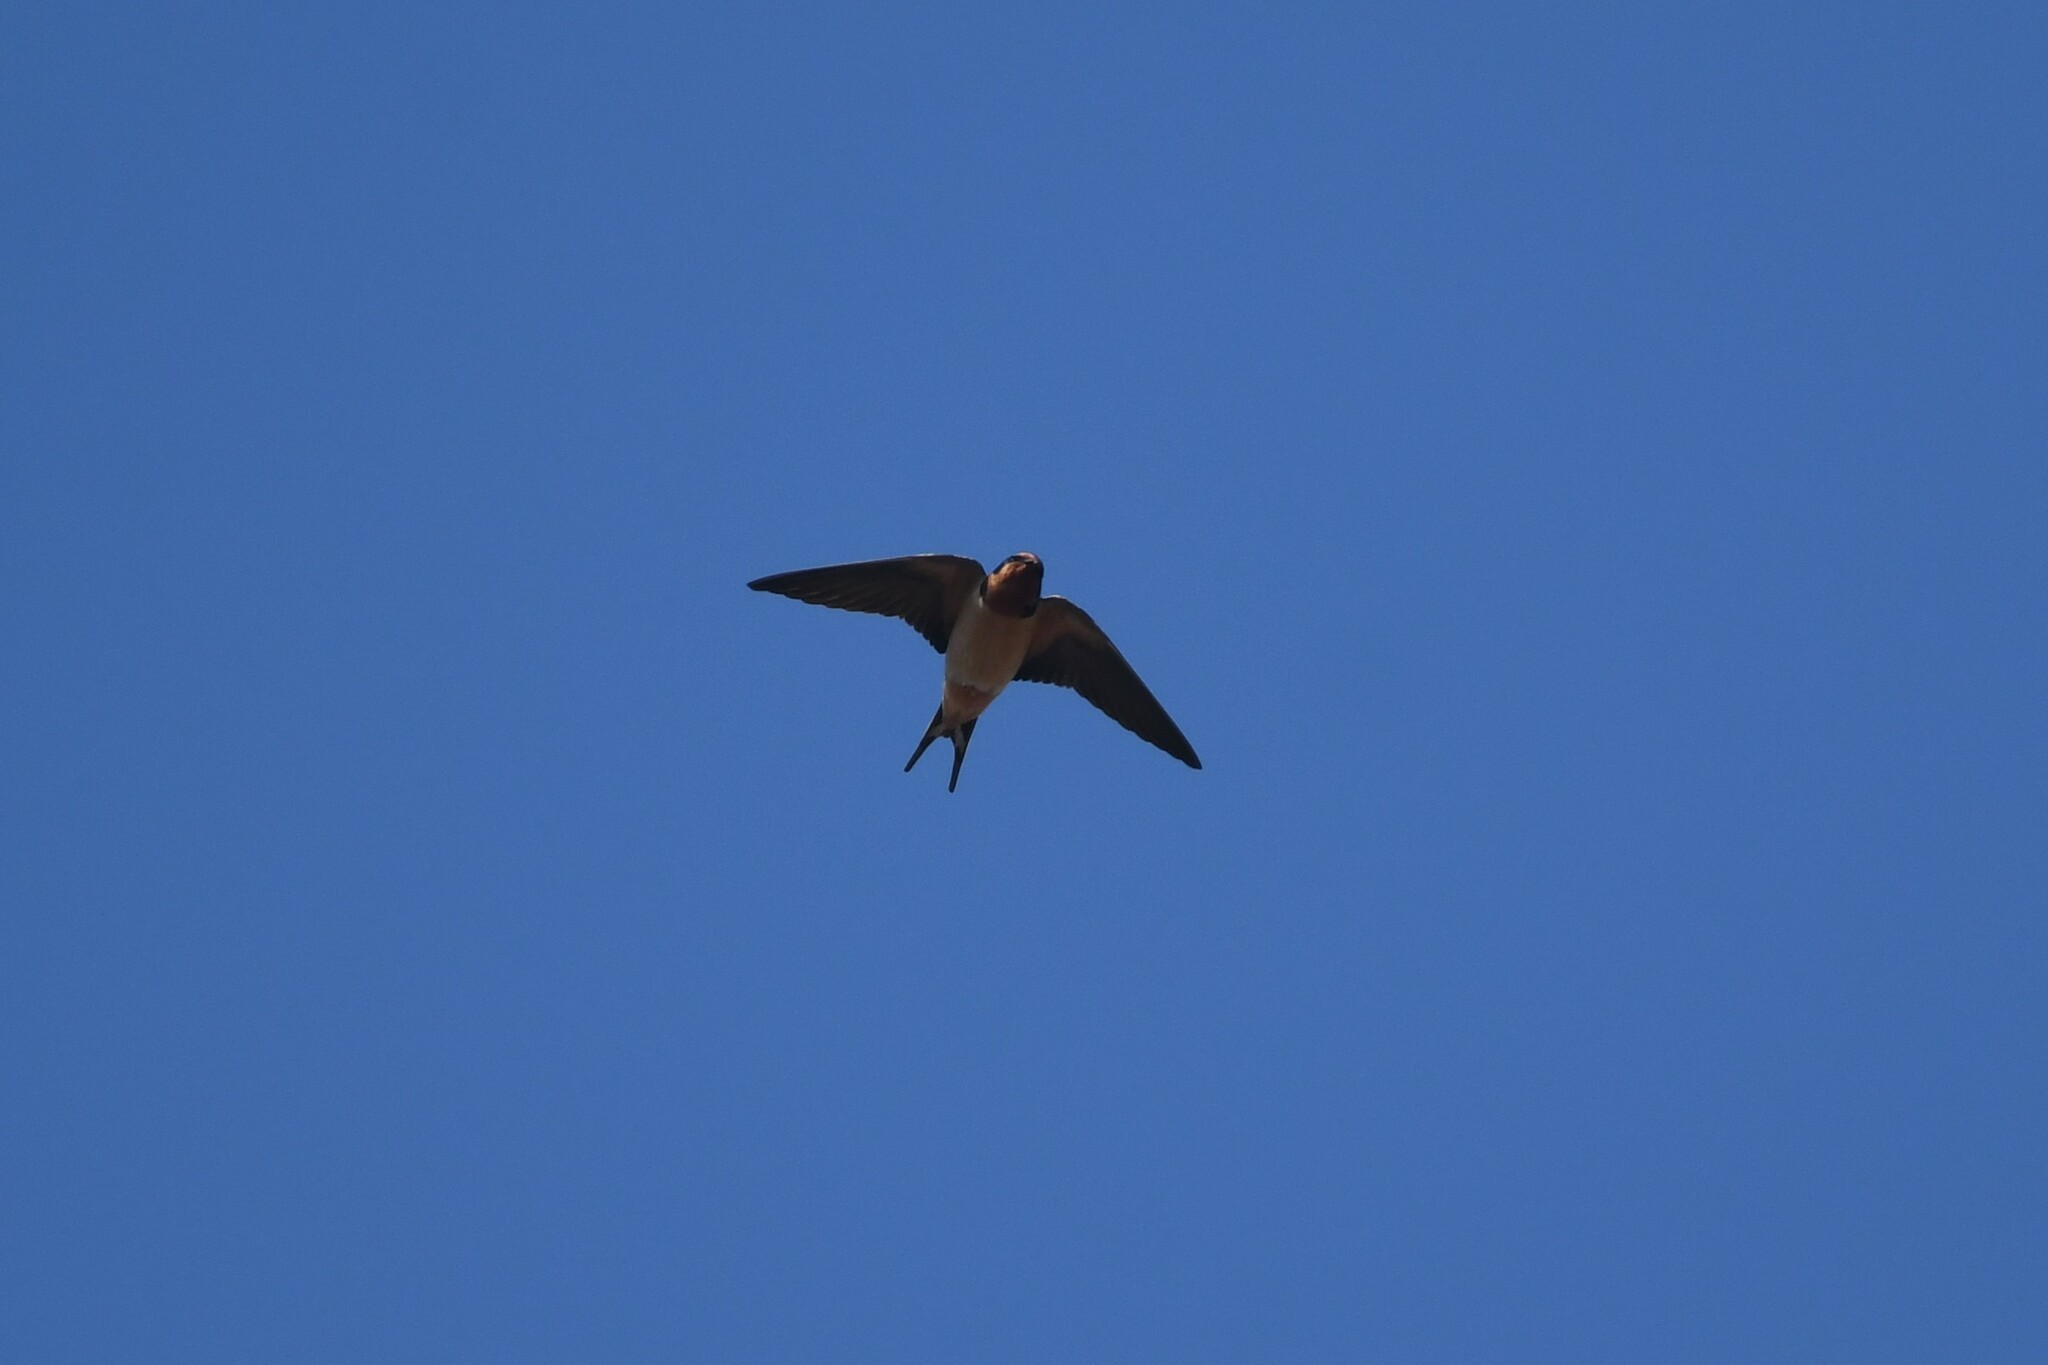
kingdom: Animalia
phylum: Chordata
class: Aves
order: Passeriformes
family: Hirundinidae
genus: Hirundo
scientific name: Hirundo rustica
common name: Barn swallow
